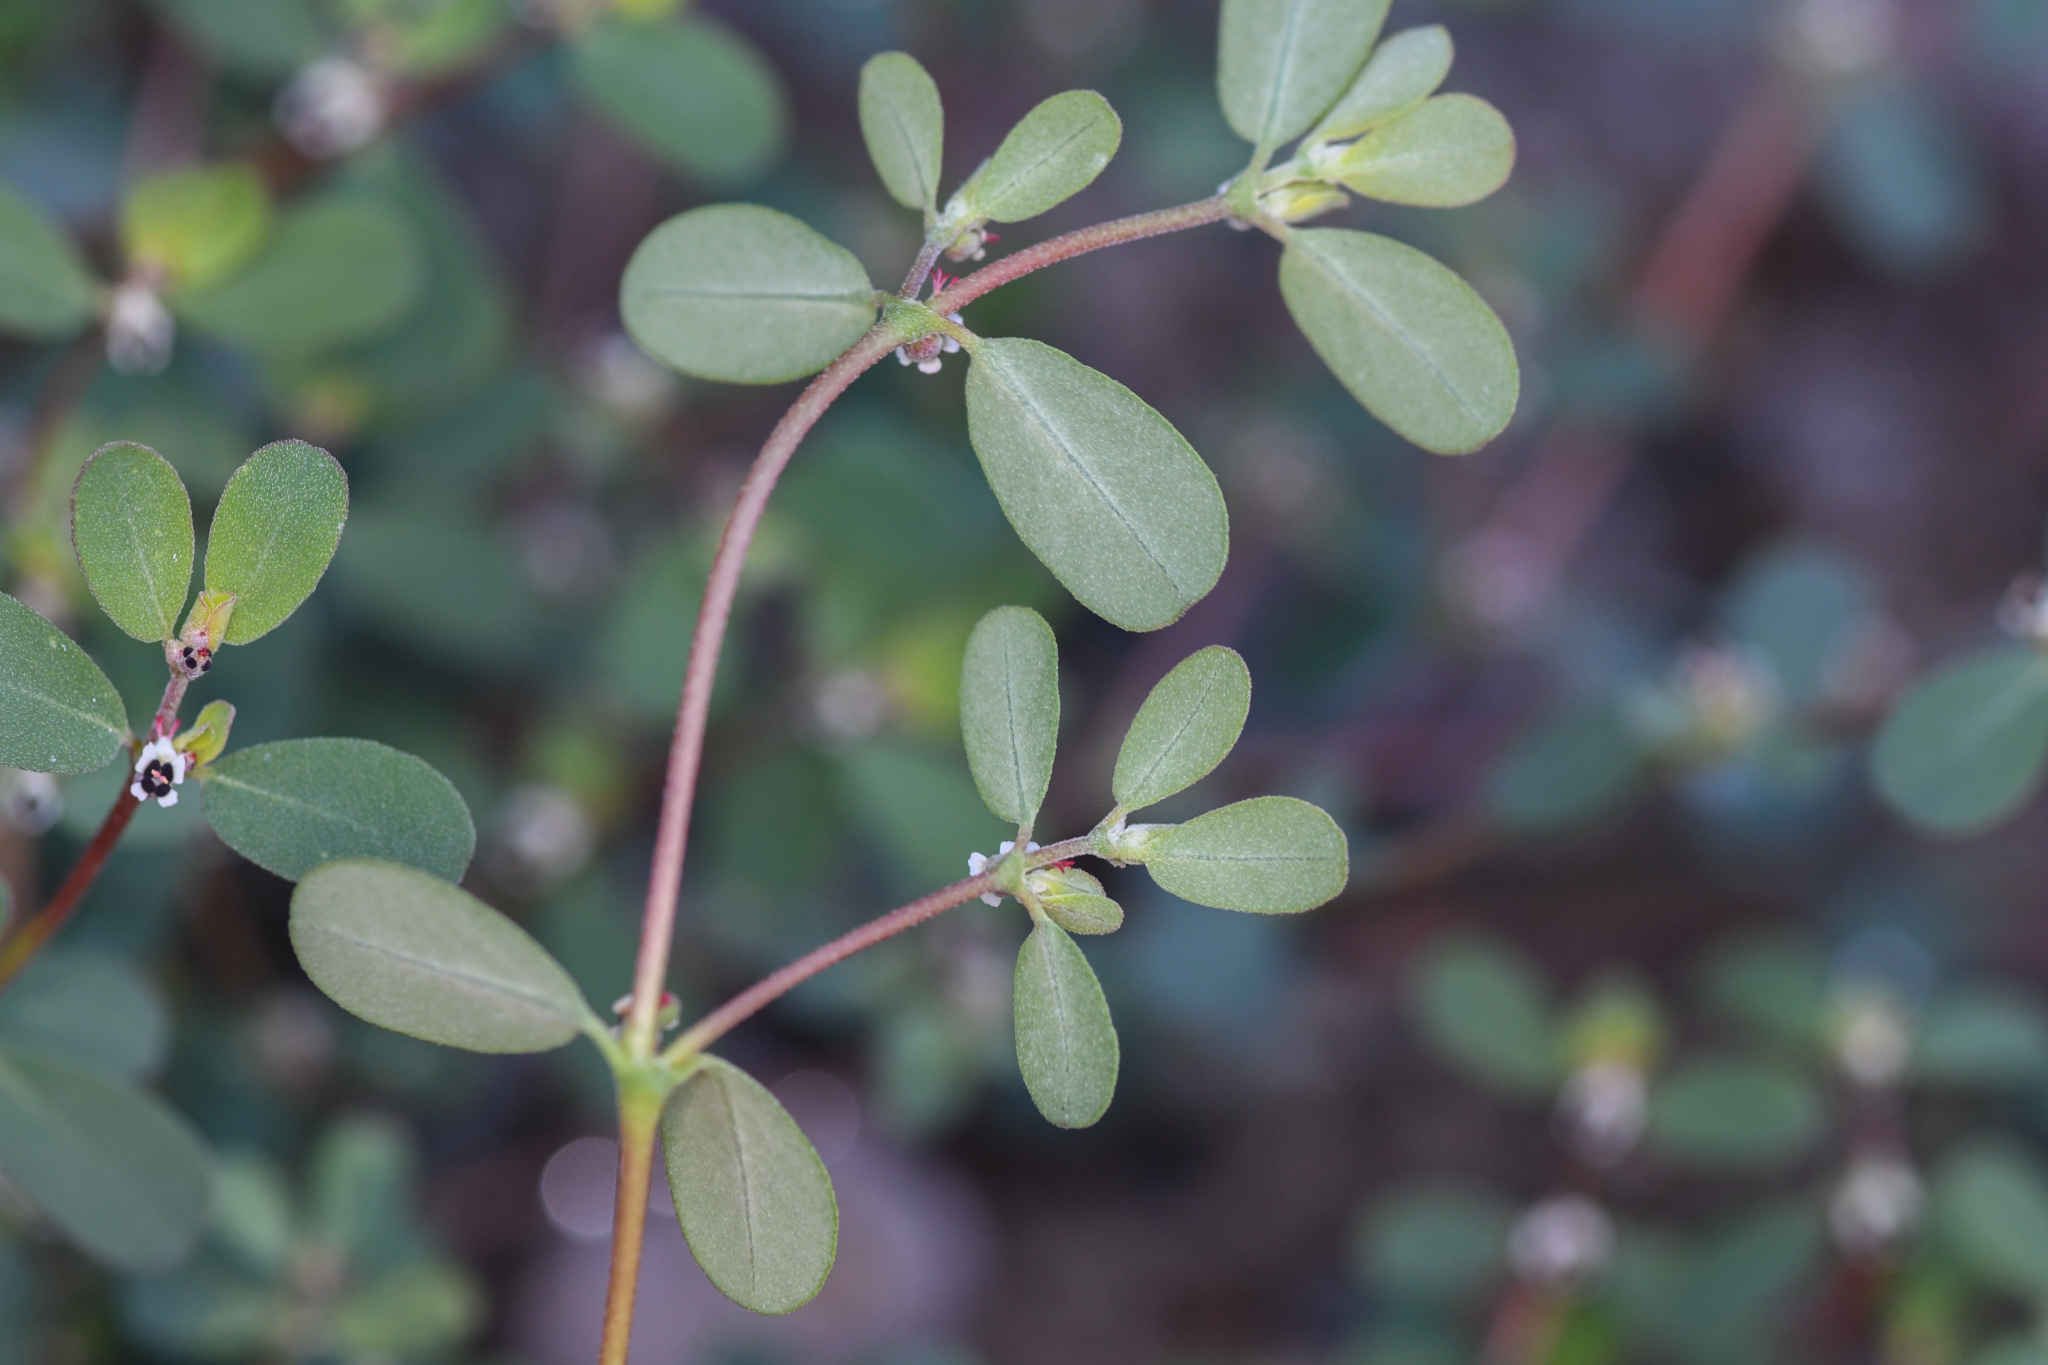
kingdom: Plantae
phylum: Tracheophyta
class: Magnoliopsida
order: Malpighiales
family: Euphorbiaceae
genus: Euphorbia
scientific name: Euphorbia pediculifera
